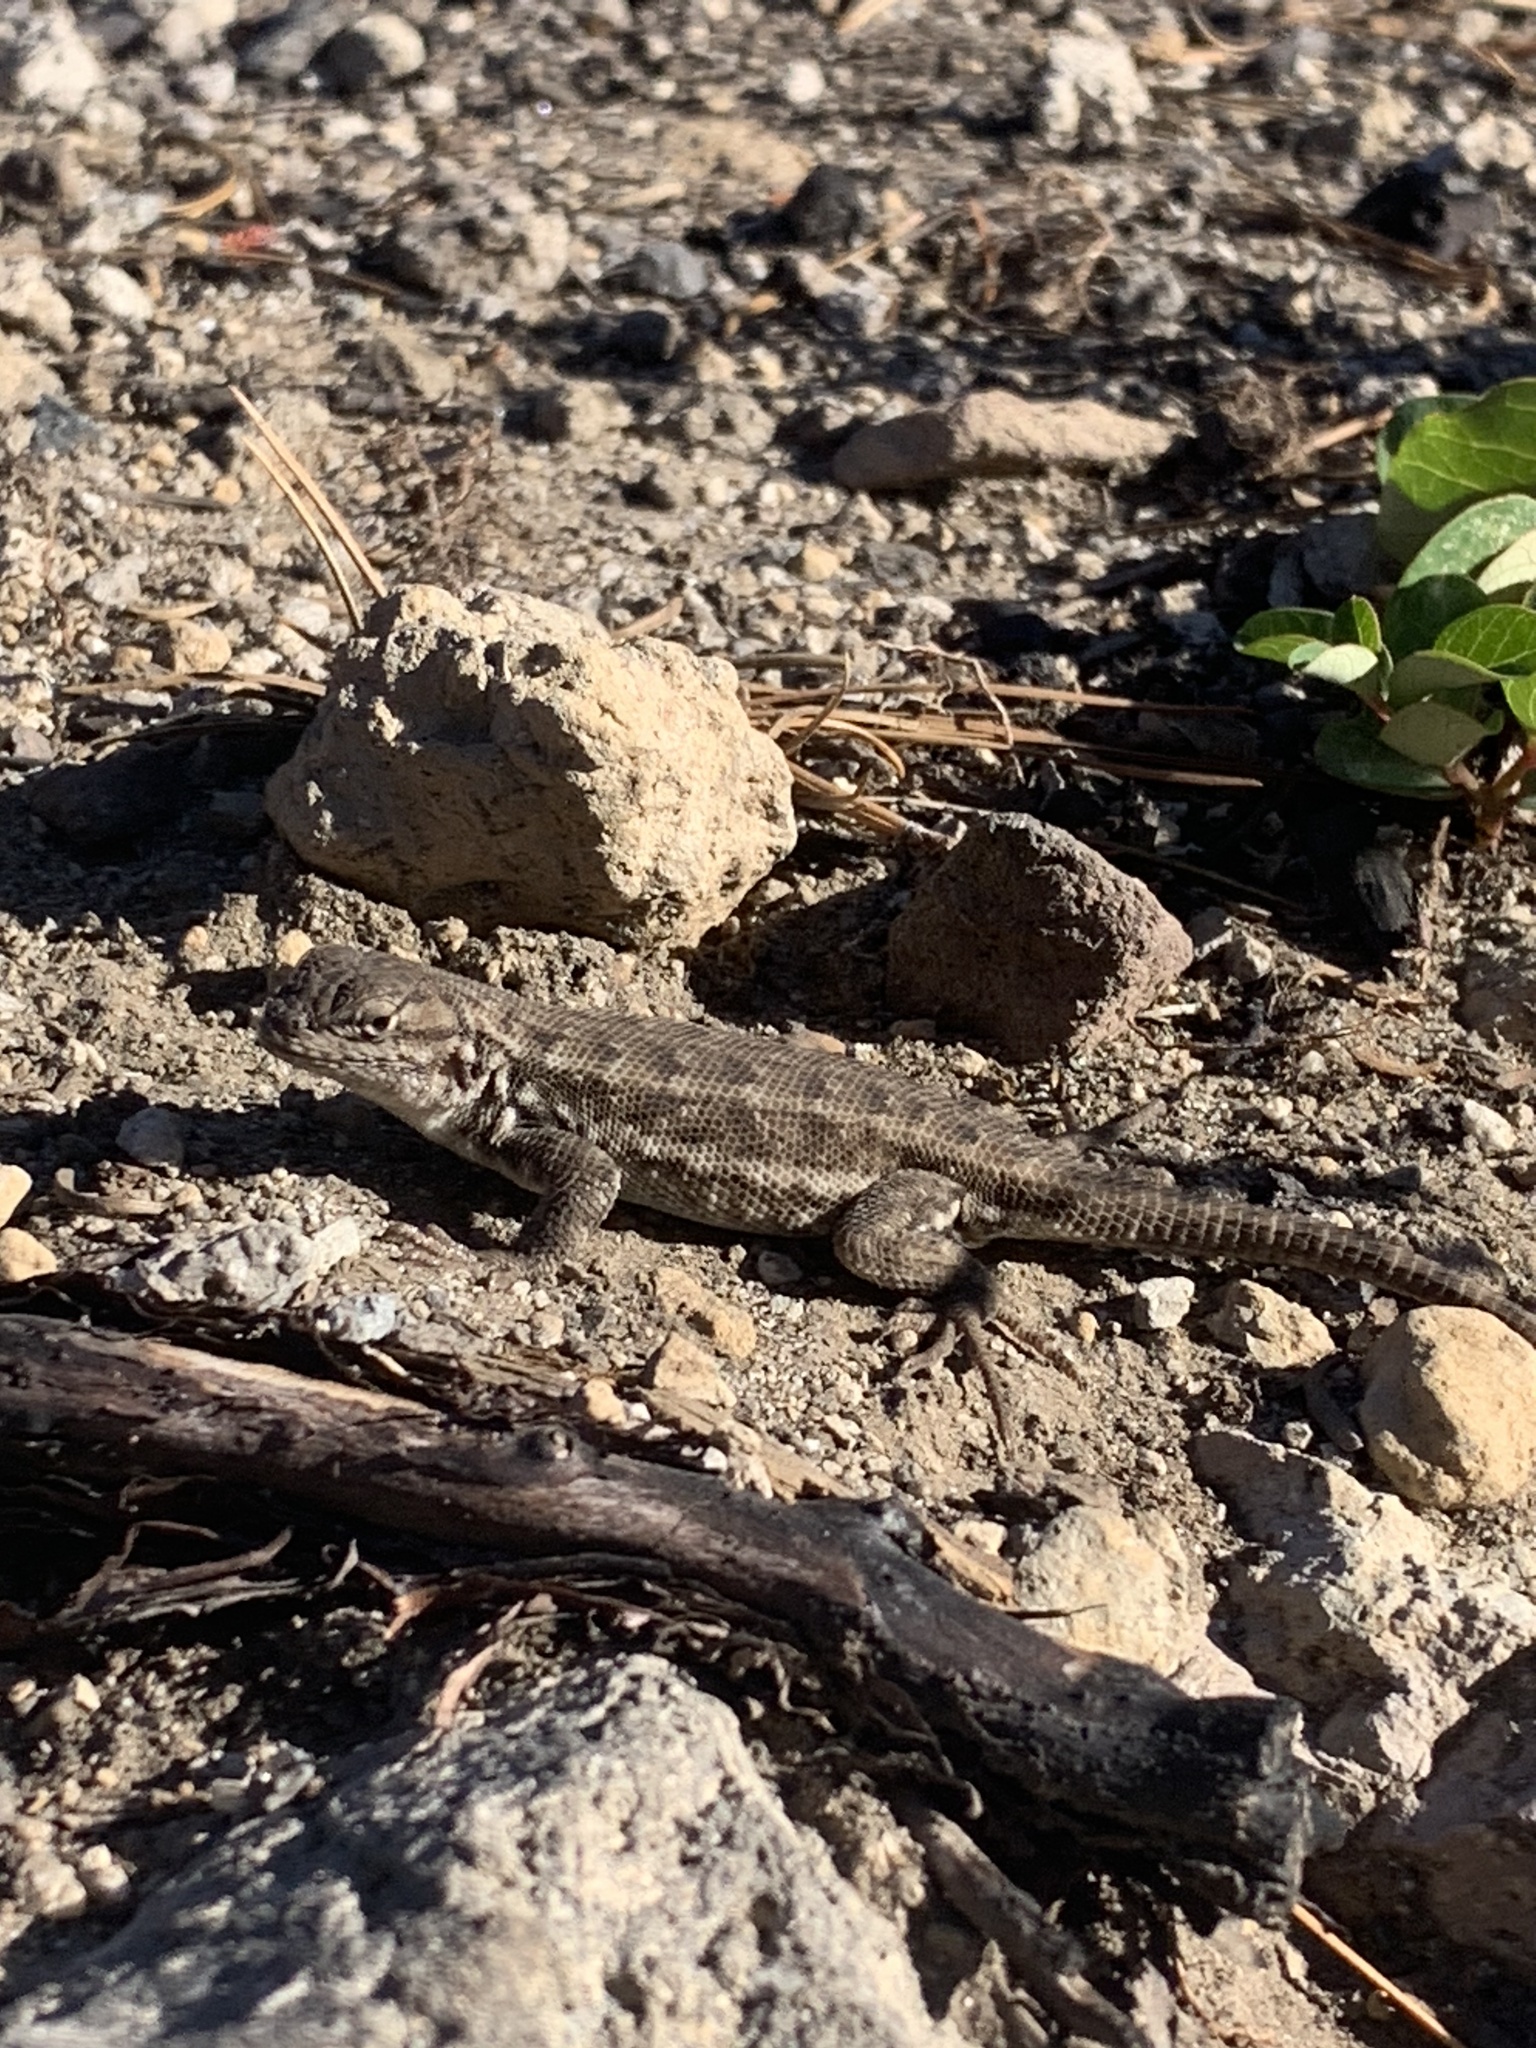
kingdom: Animalia
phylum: Chordata
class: Squamata
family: Phrynosomatidae
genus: Sceloporus
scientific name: Sceloporus graciosus
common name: Sagebrush lizard
